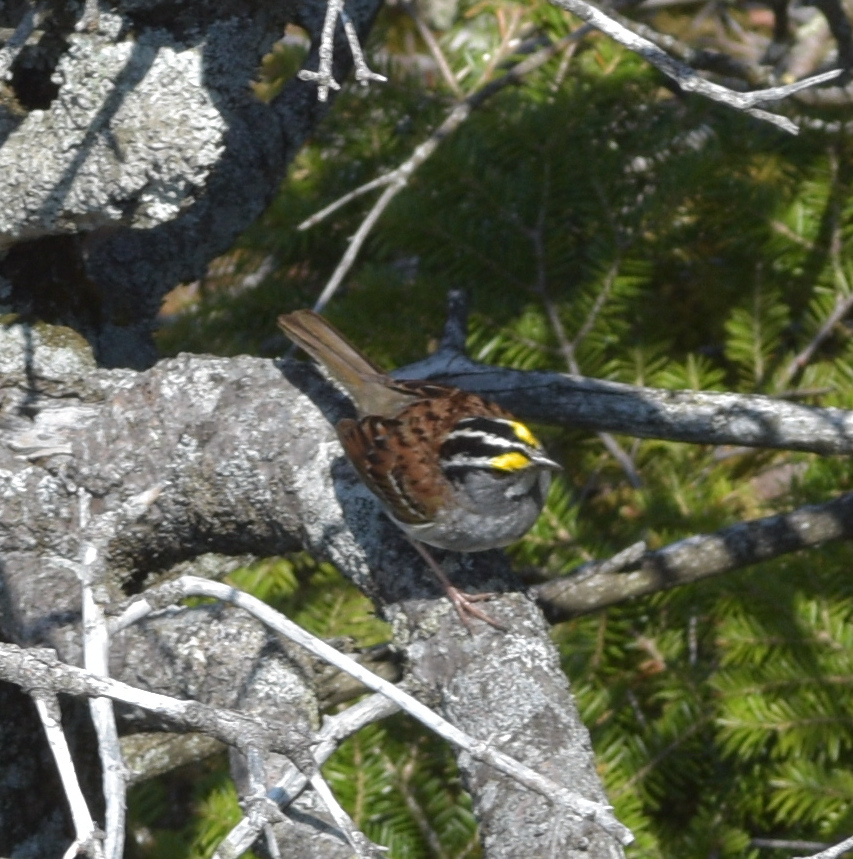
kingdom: Animalia
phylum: Chordata
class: Aves
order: Passeriformes
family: Passerellidae
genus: Zonotrichia
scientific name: Zonotrichia albicollis
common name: White-throated sparrow
